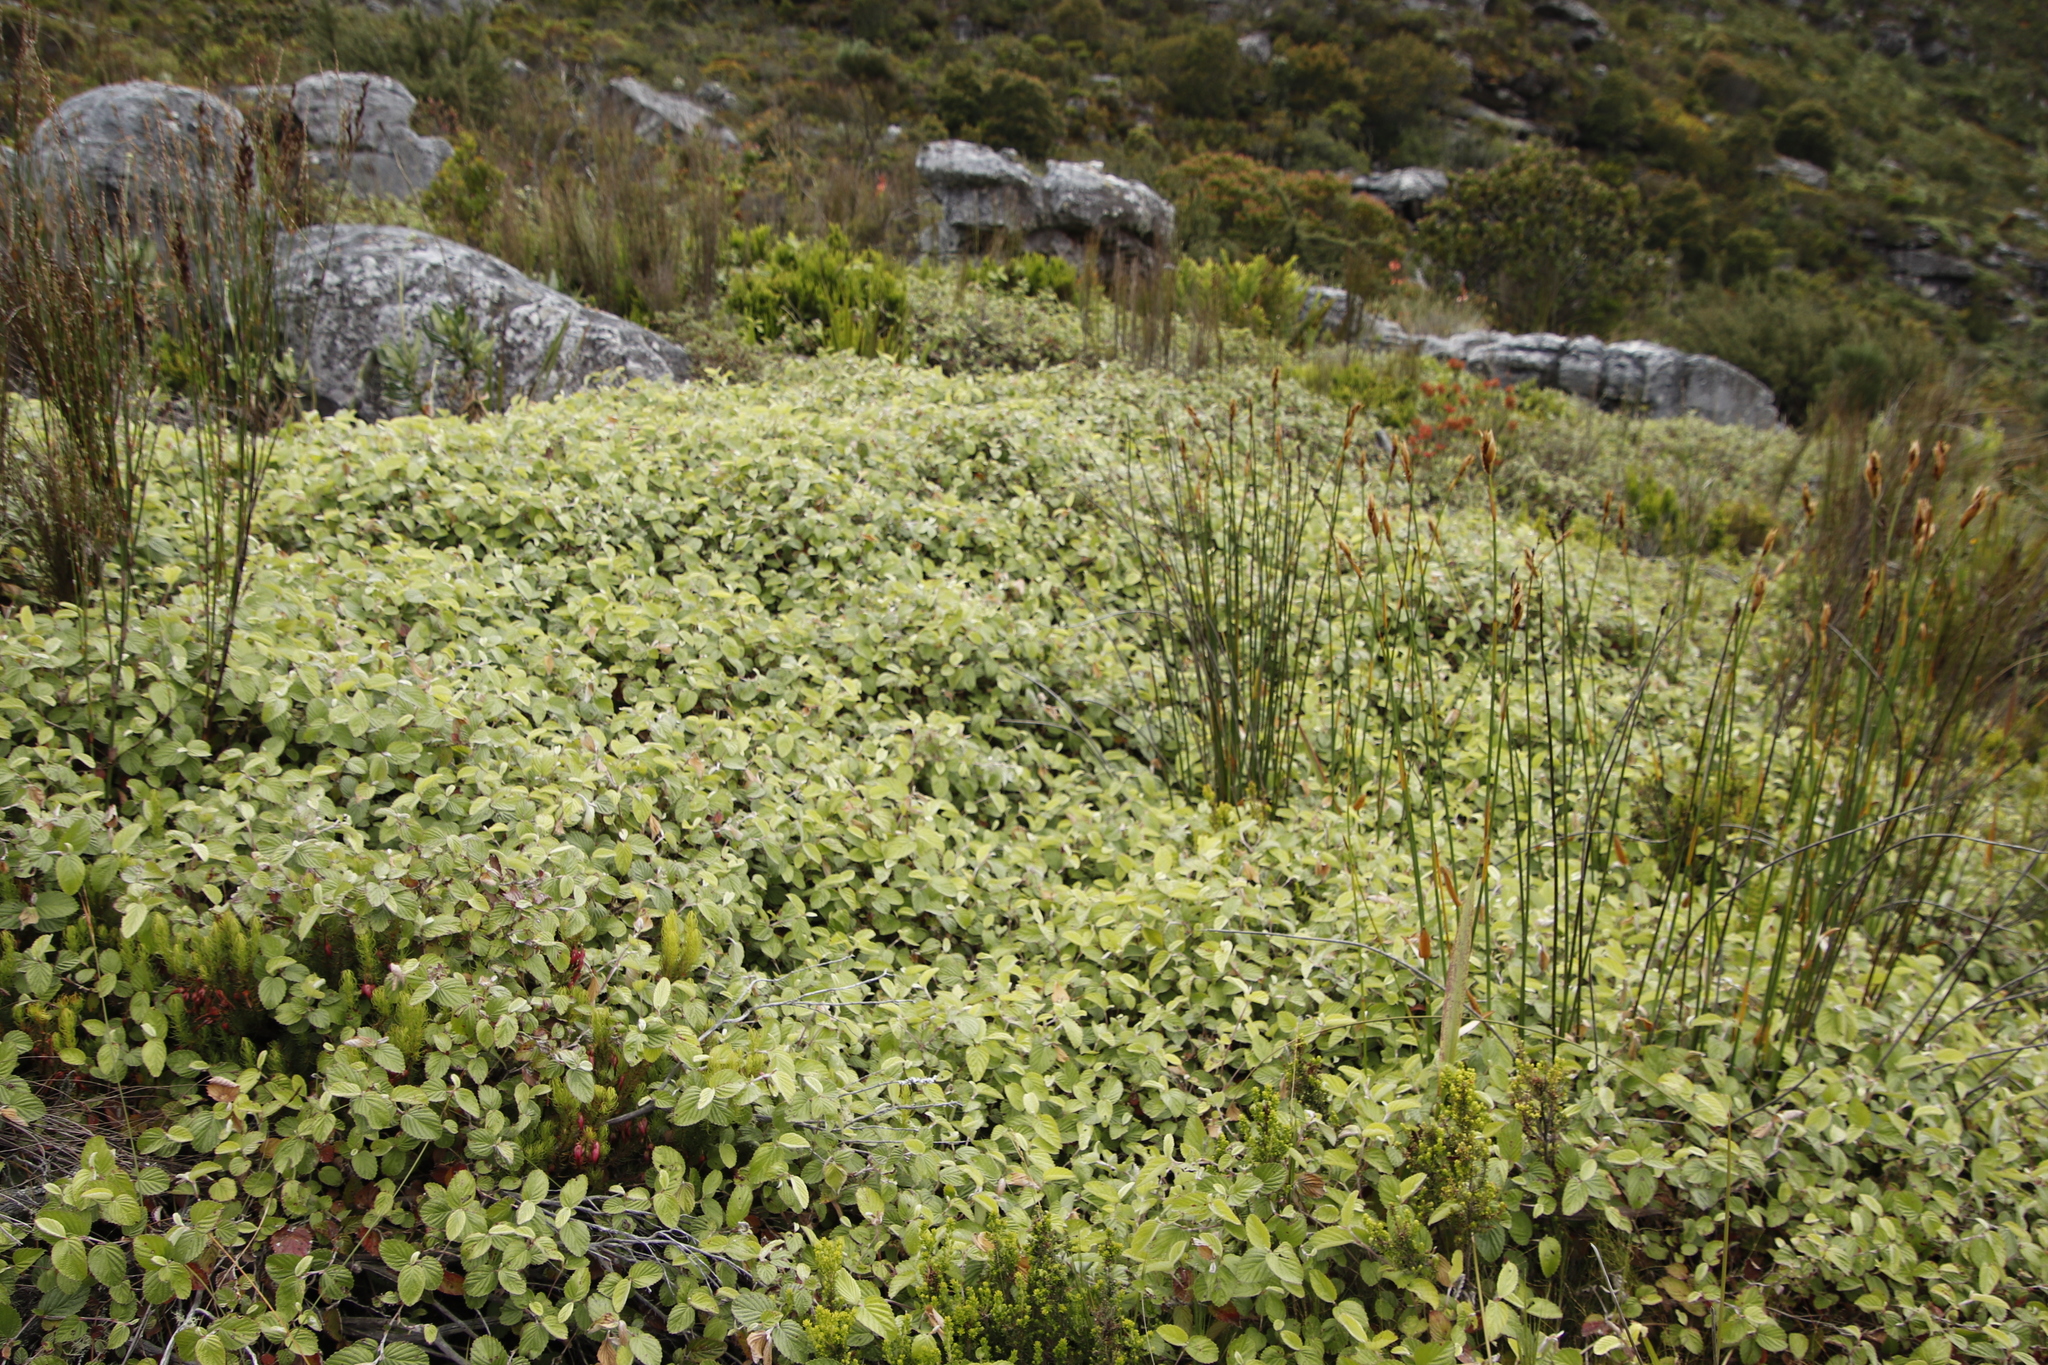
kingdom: Plantae
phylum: Tracheophyta
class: Magnoliopsida
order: Rosales
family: Rosaceae
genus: Cliffortia
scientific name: Cliffortia odorata
